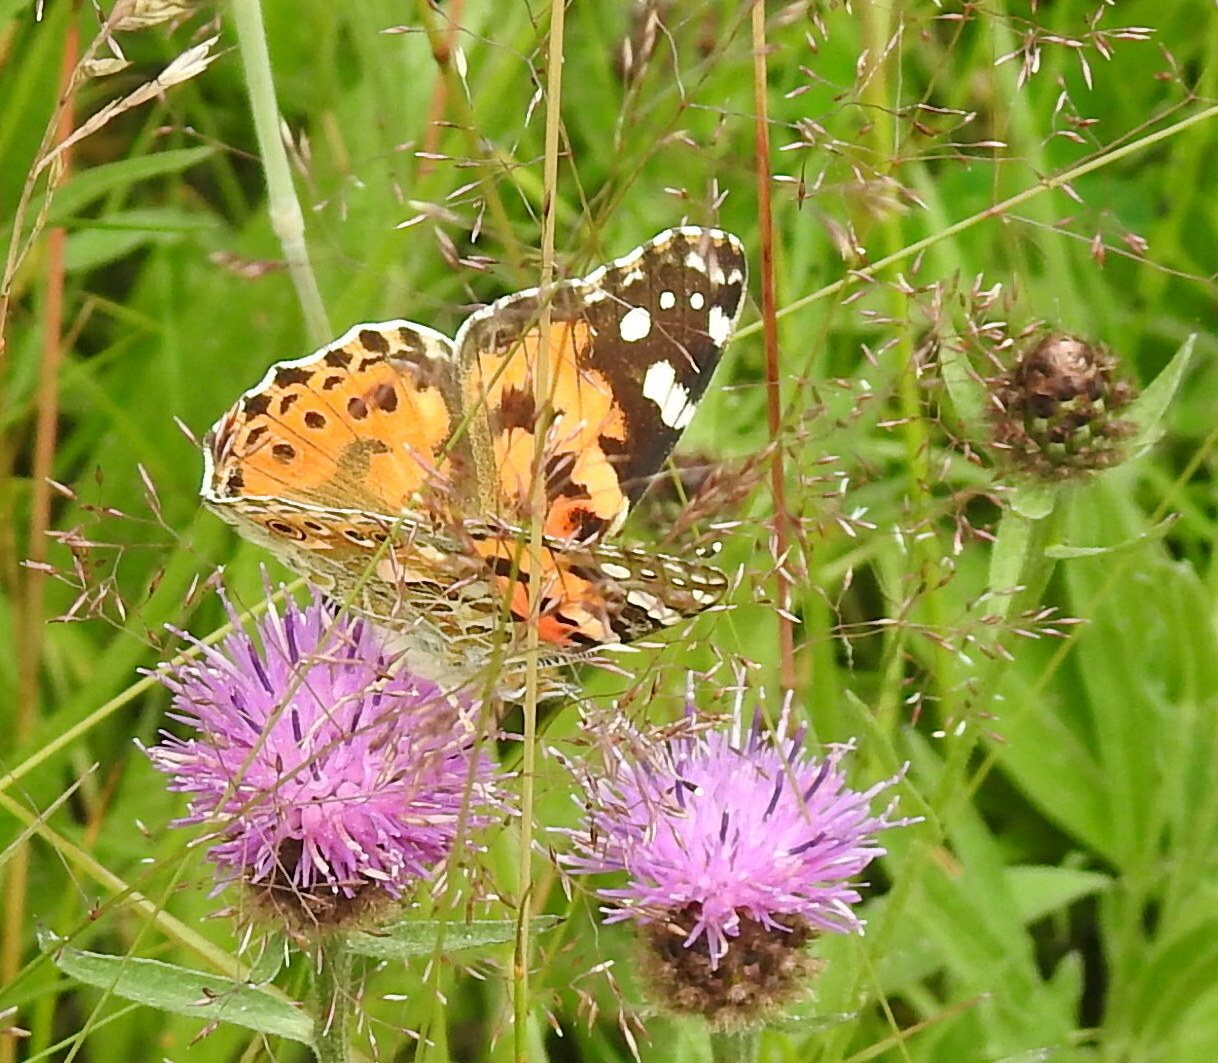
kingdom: Animalia
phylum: Arthropoda
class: Insecta
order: Lepidoptera
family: Nymphalidae
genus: Vanessa
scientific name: Vanessa cardui
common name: Painted lady
